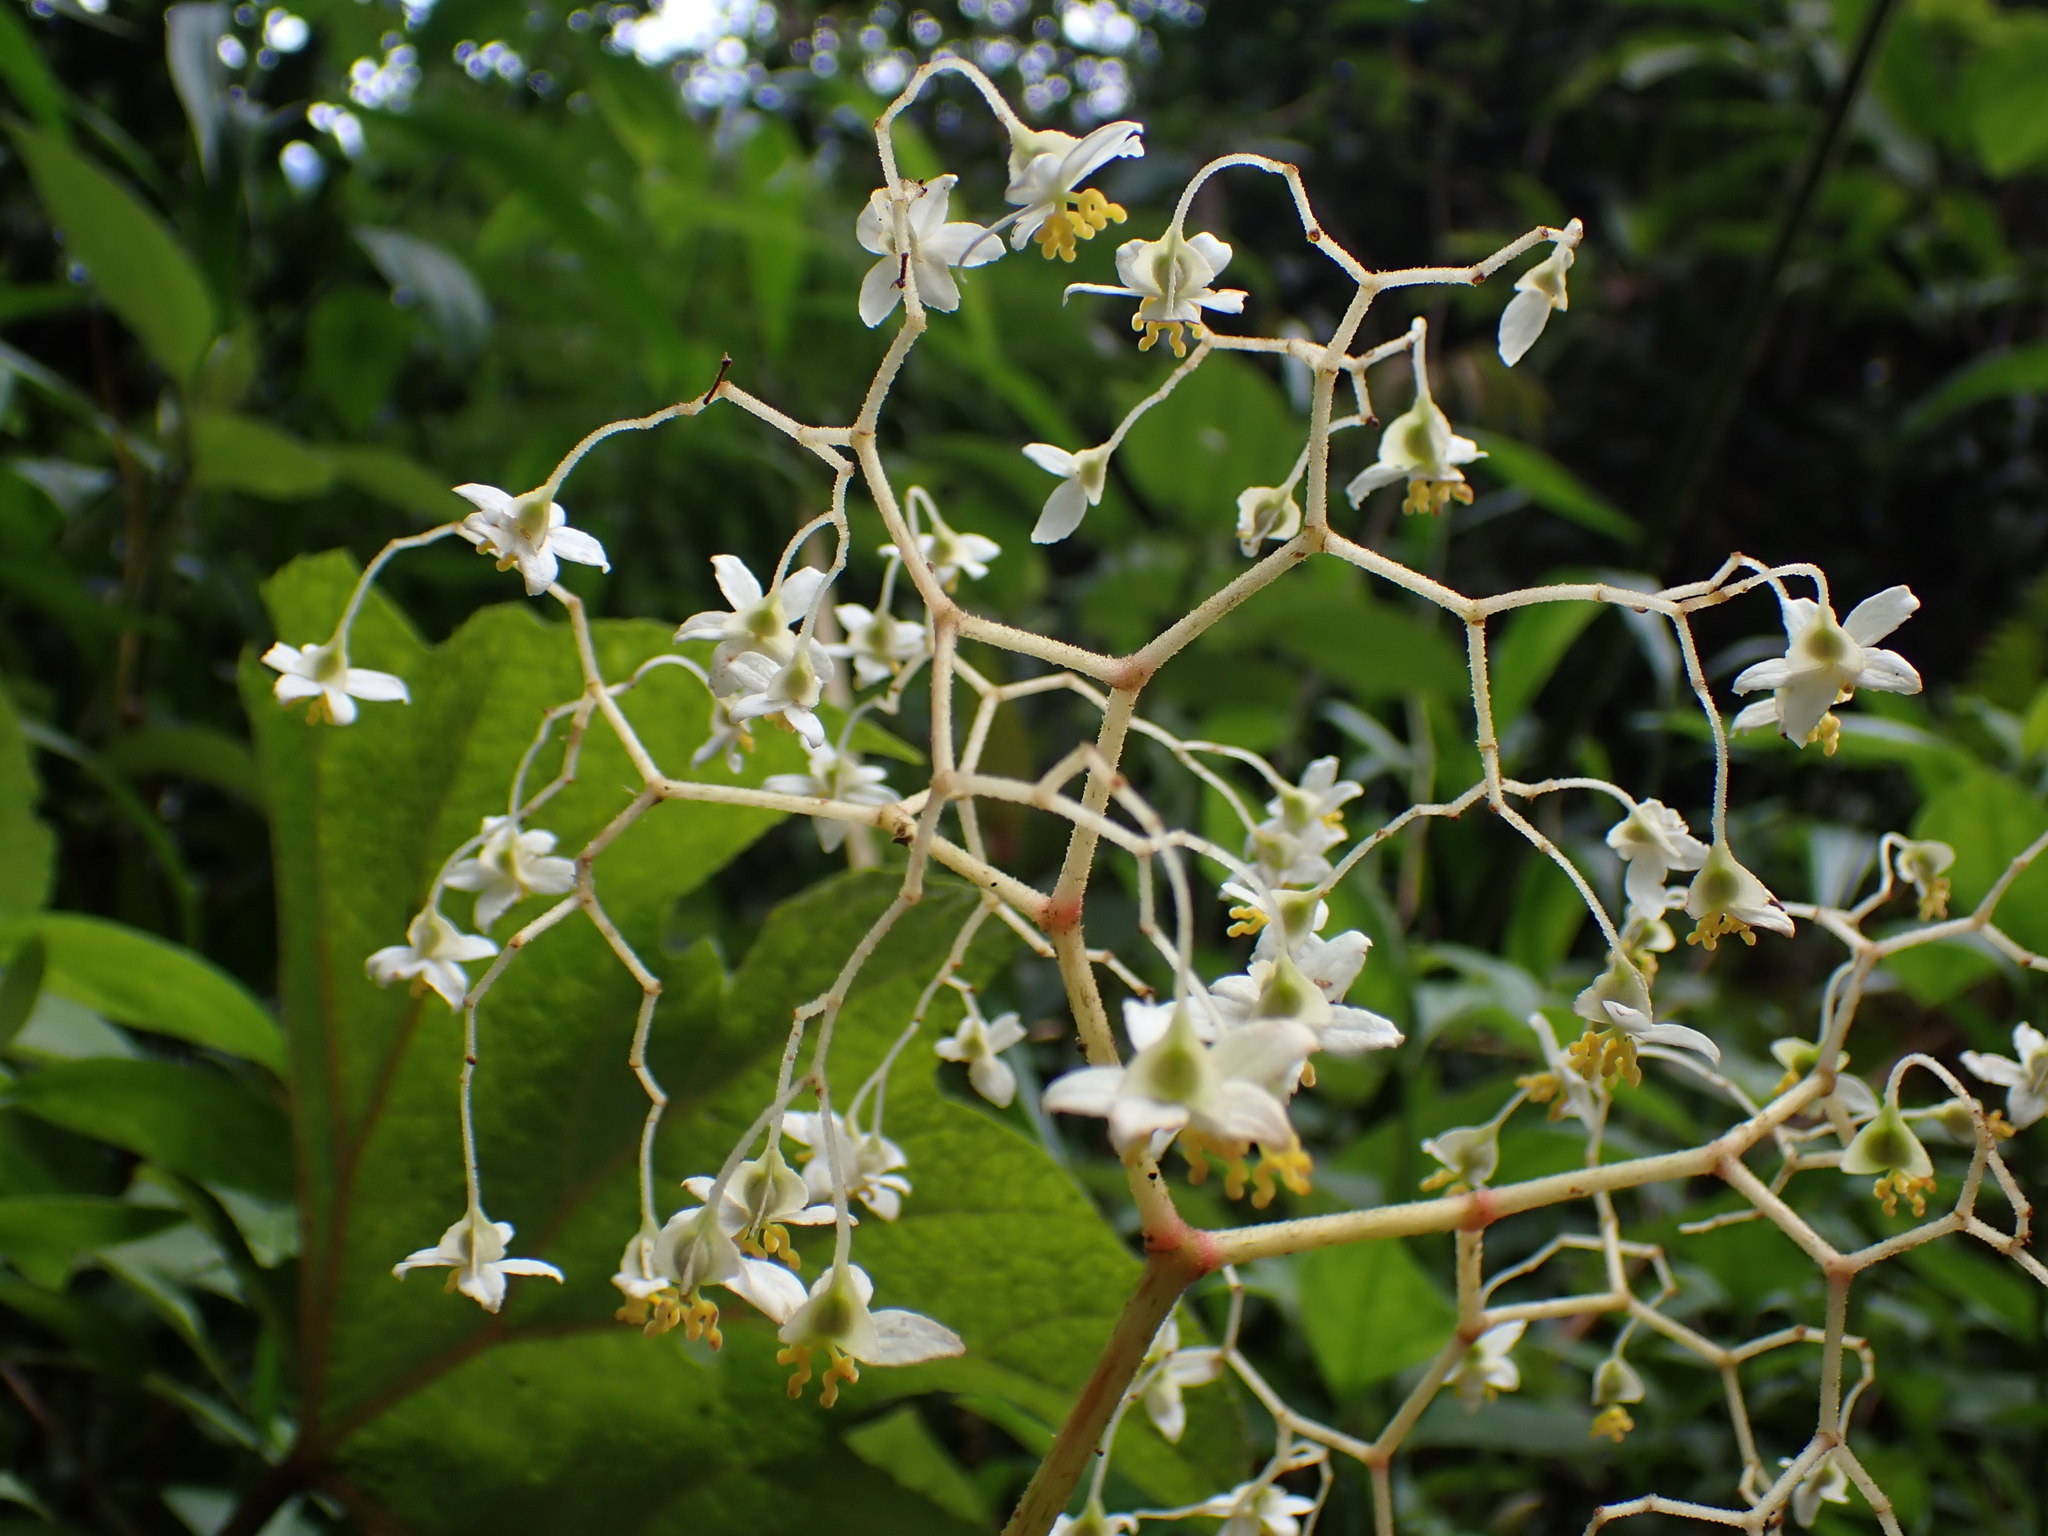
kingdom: Plantae
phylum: Tracheophyta
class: Magnoliopsida
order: Cucurbitales
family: Begoniaceae
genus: Begonia
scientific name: Begonia parviflora
